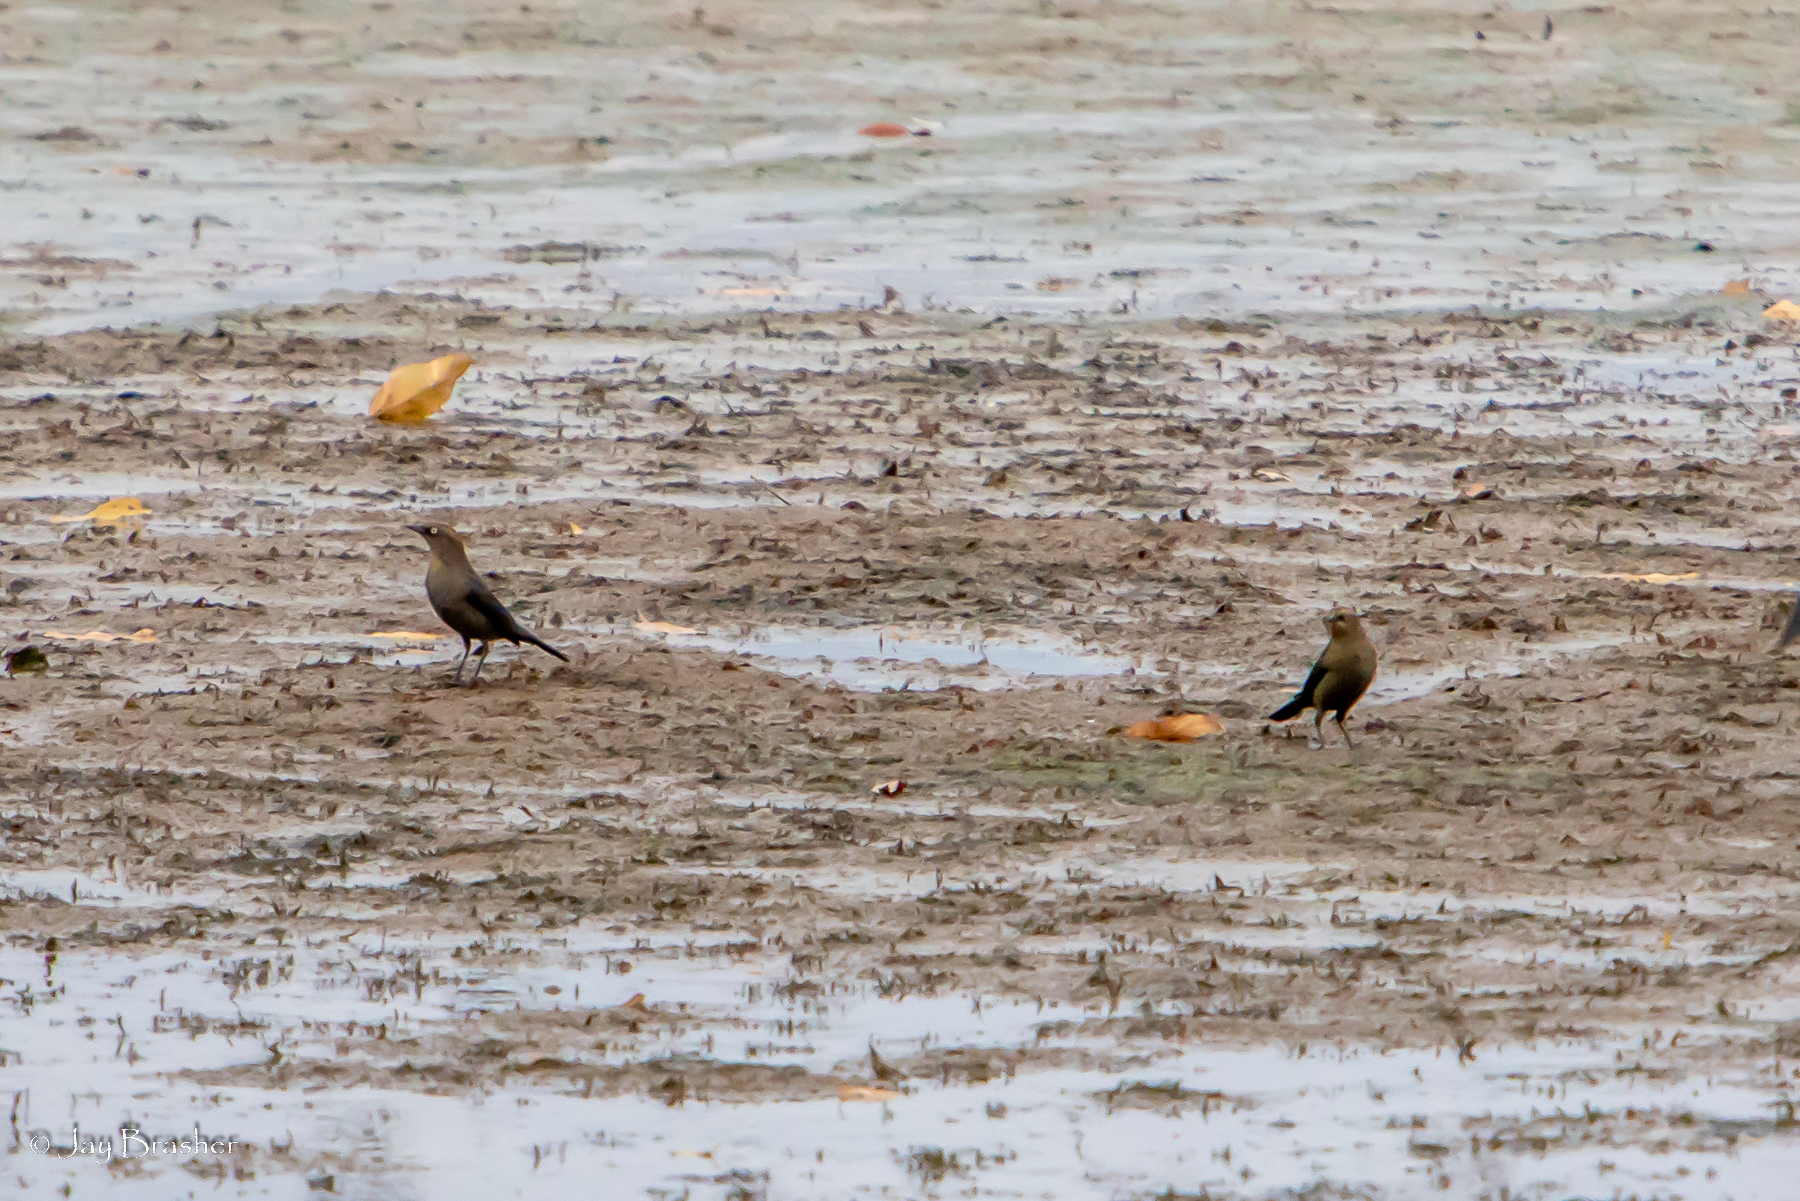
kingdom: Animalia
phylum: Chordata
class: Aves
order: Passeriformes
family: Icteridae
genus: Euphagus
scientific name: Euphagus carolinus
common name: Rusty blackbird
